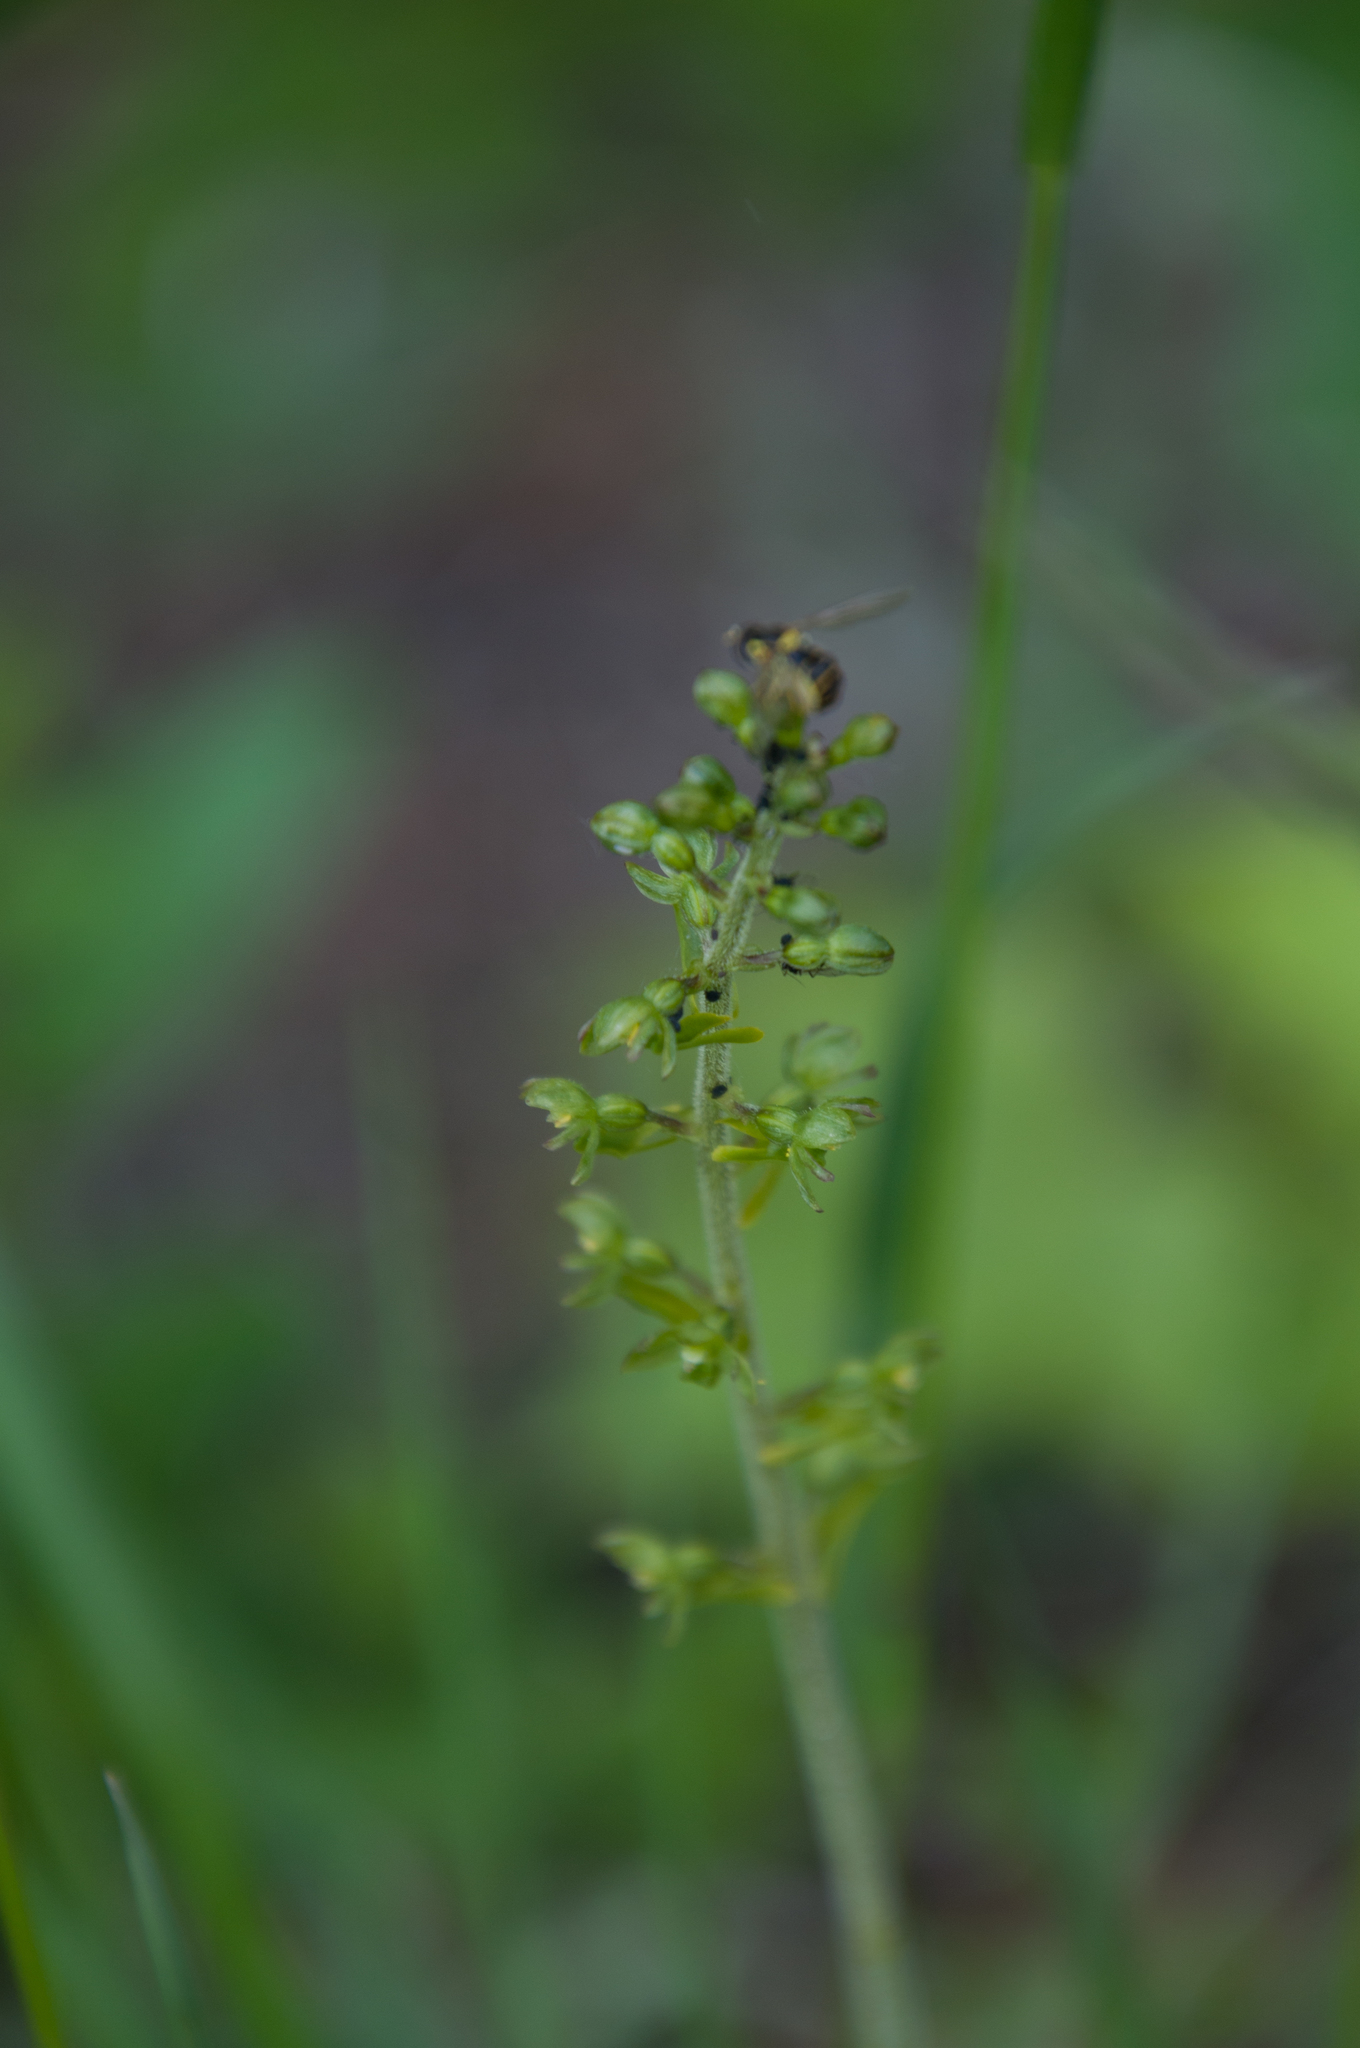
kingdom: Plantae
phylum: Tracheophyta
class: Liliopsida
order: Asparagales
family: Orchidaceae
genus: Neottia
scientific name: Neottia ovata
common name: Common twayblade
